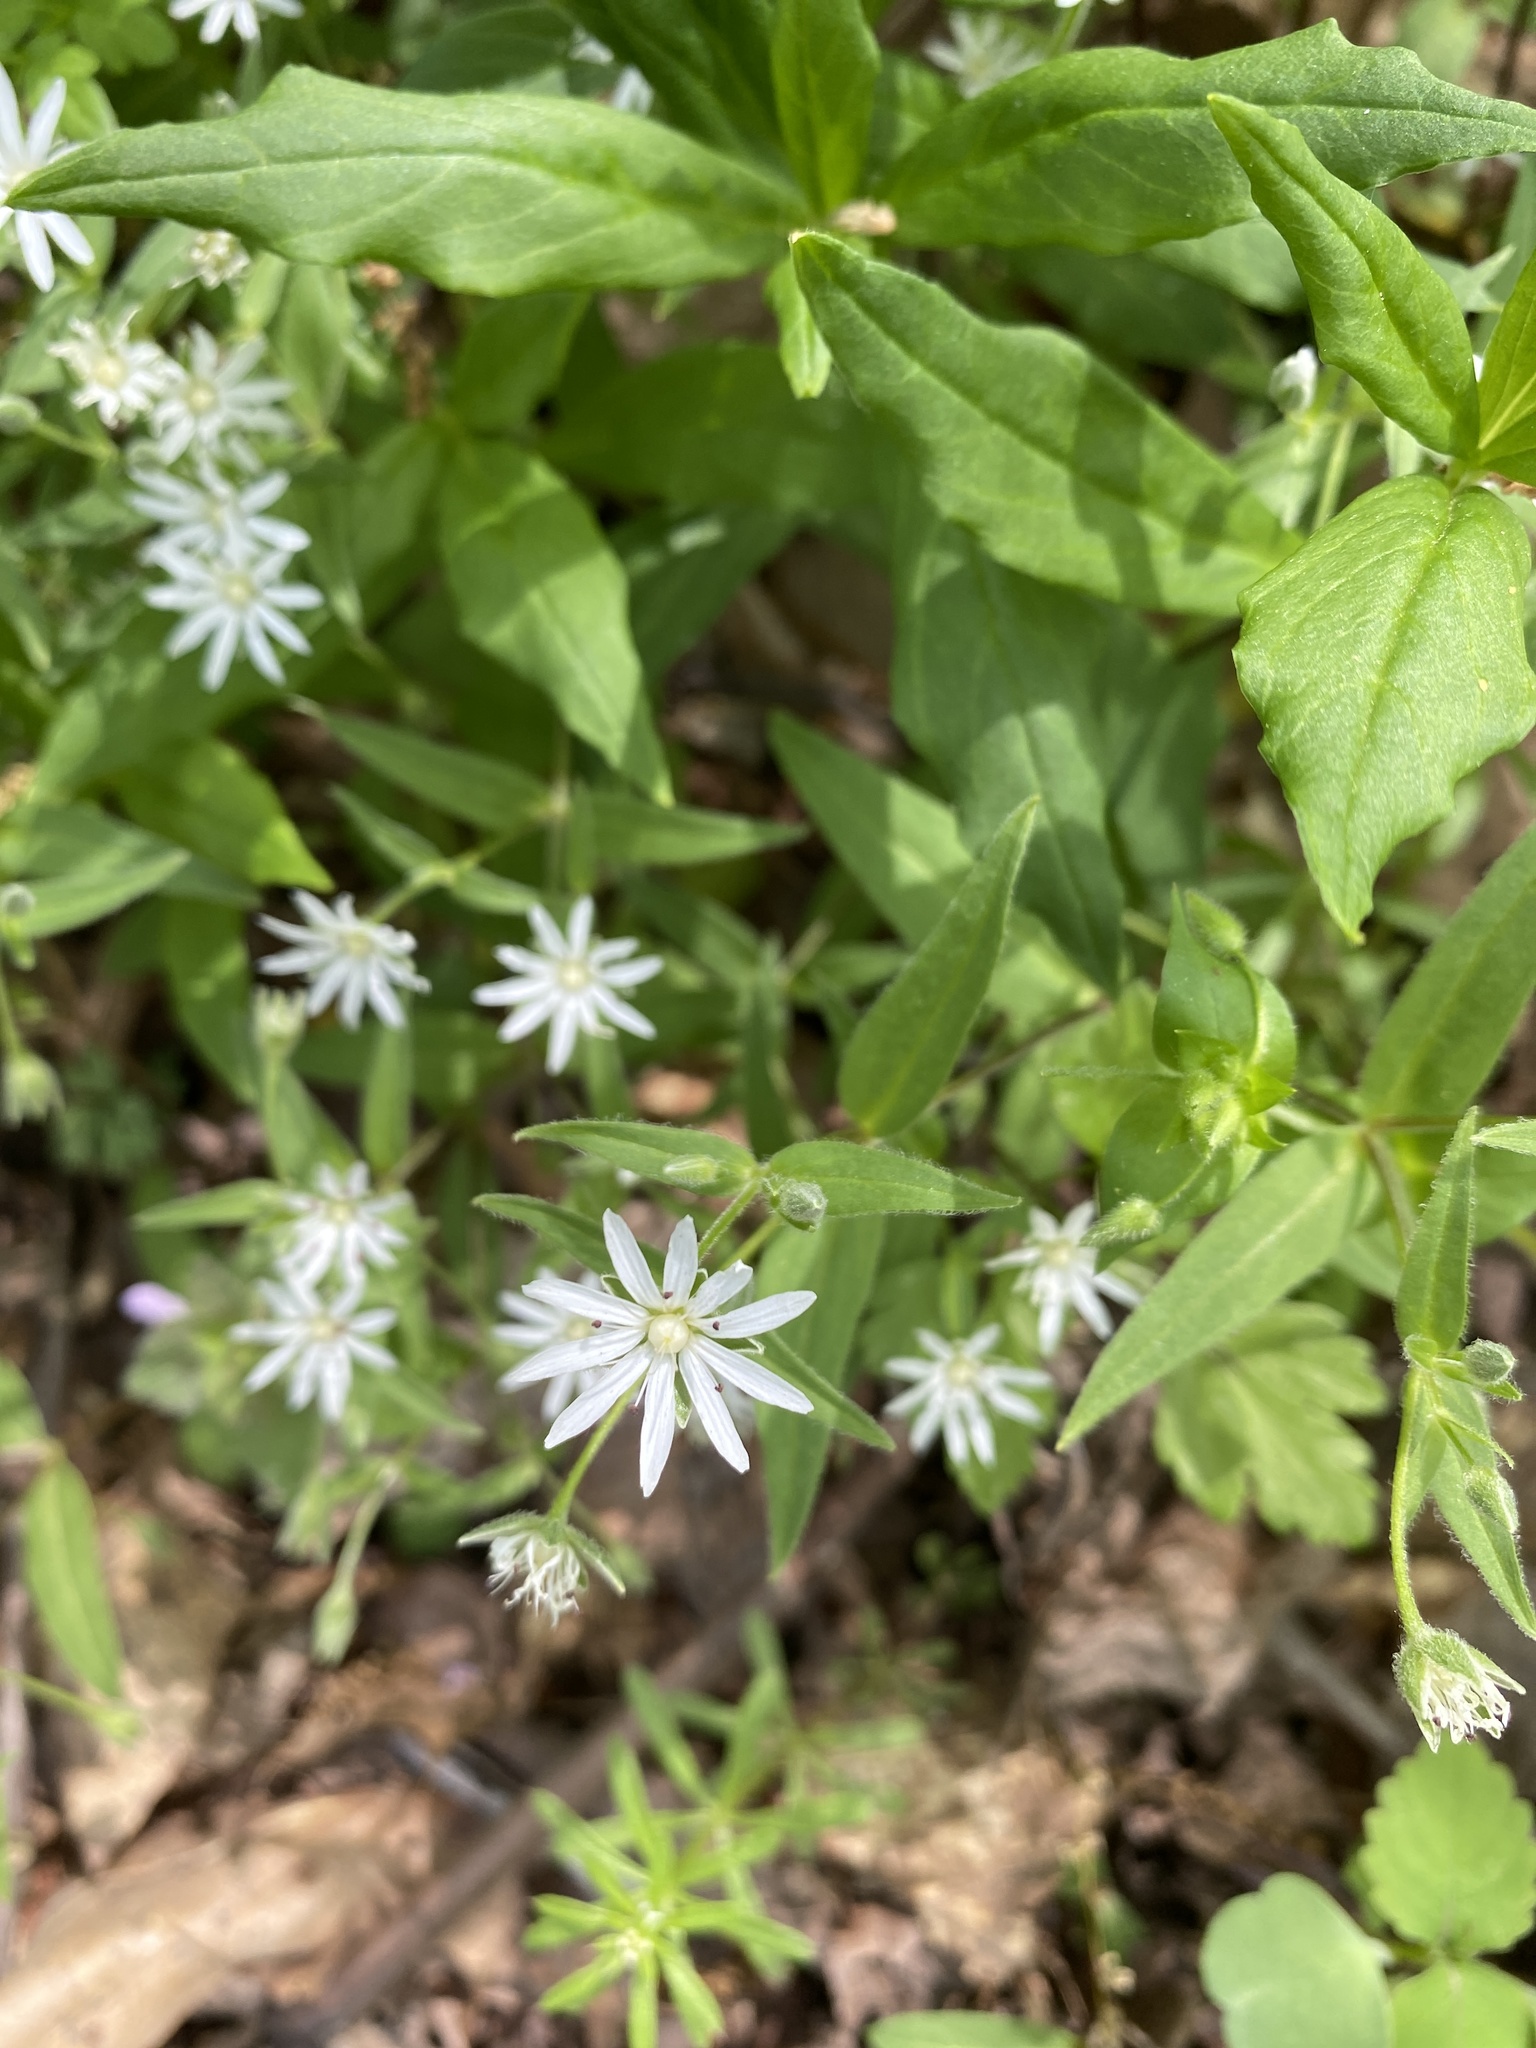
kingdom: Plantae
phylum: Tracheophyta
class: Magnoliopsida
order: Caryophyllales
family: Caryophyllaceae
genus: Stellaria
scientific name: Stellaria pubera
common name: Star chickweed
